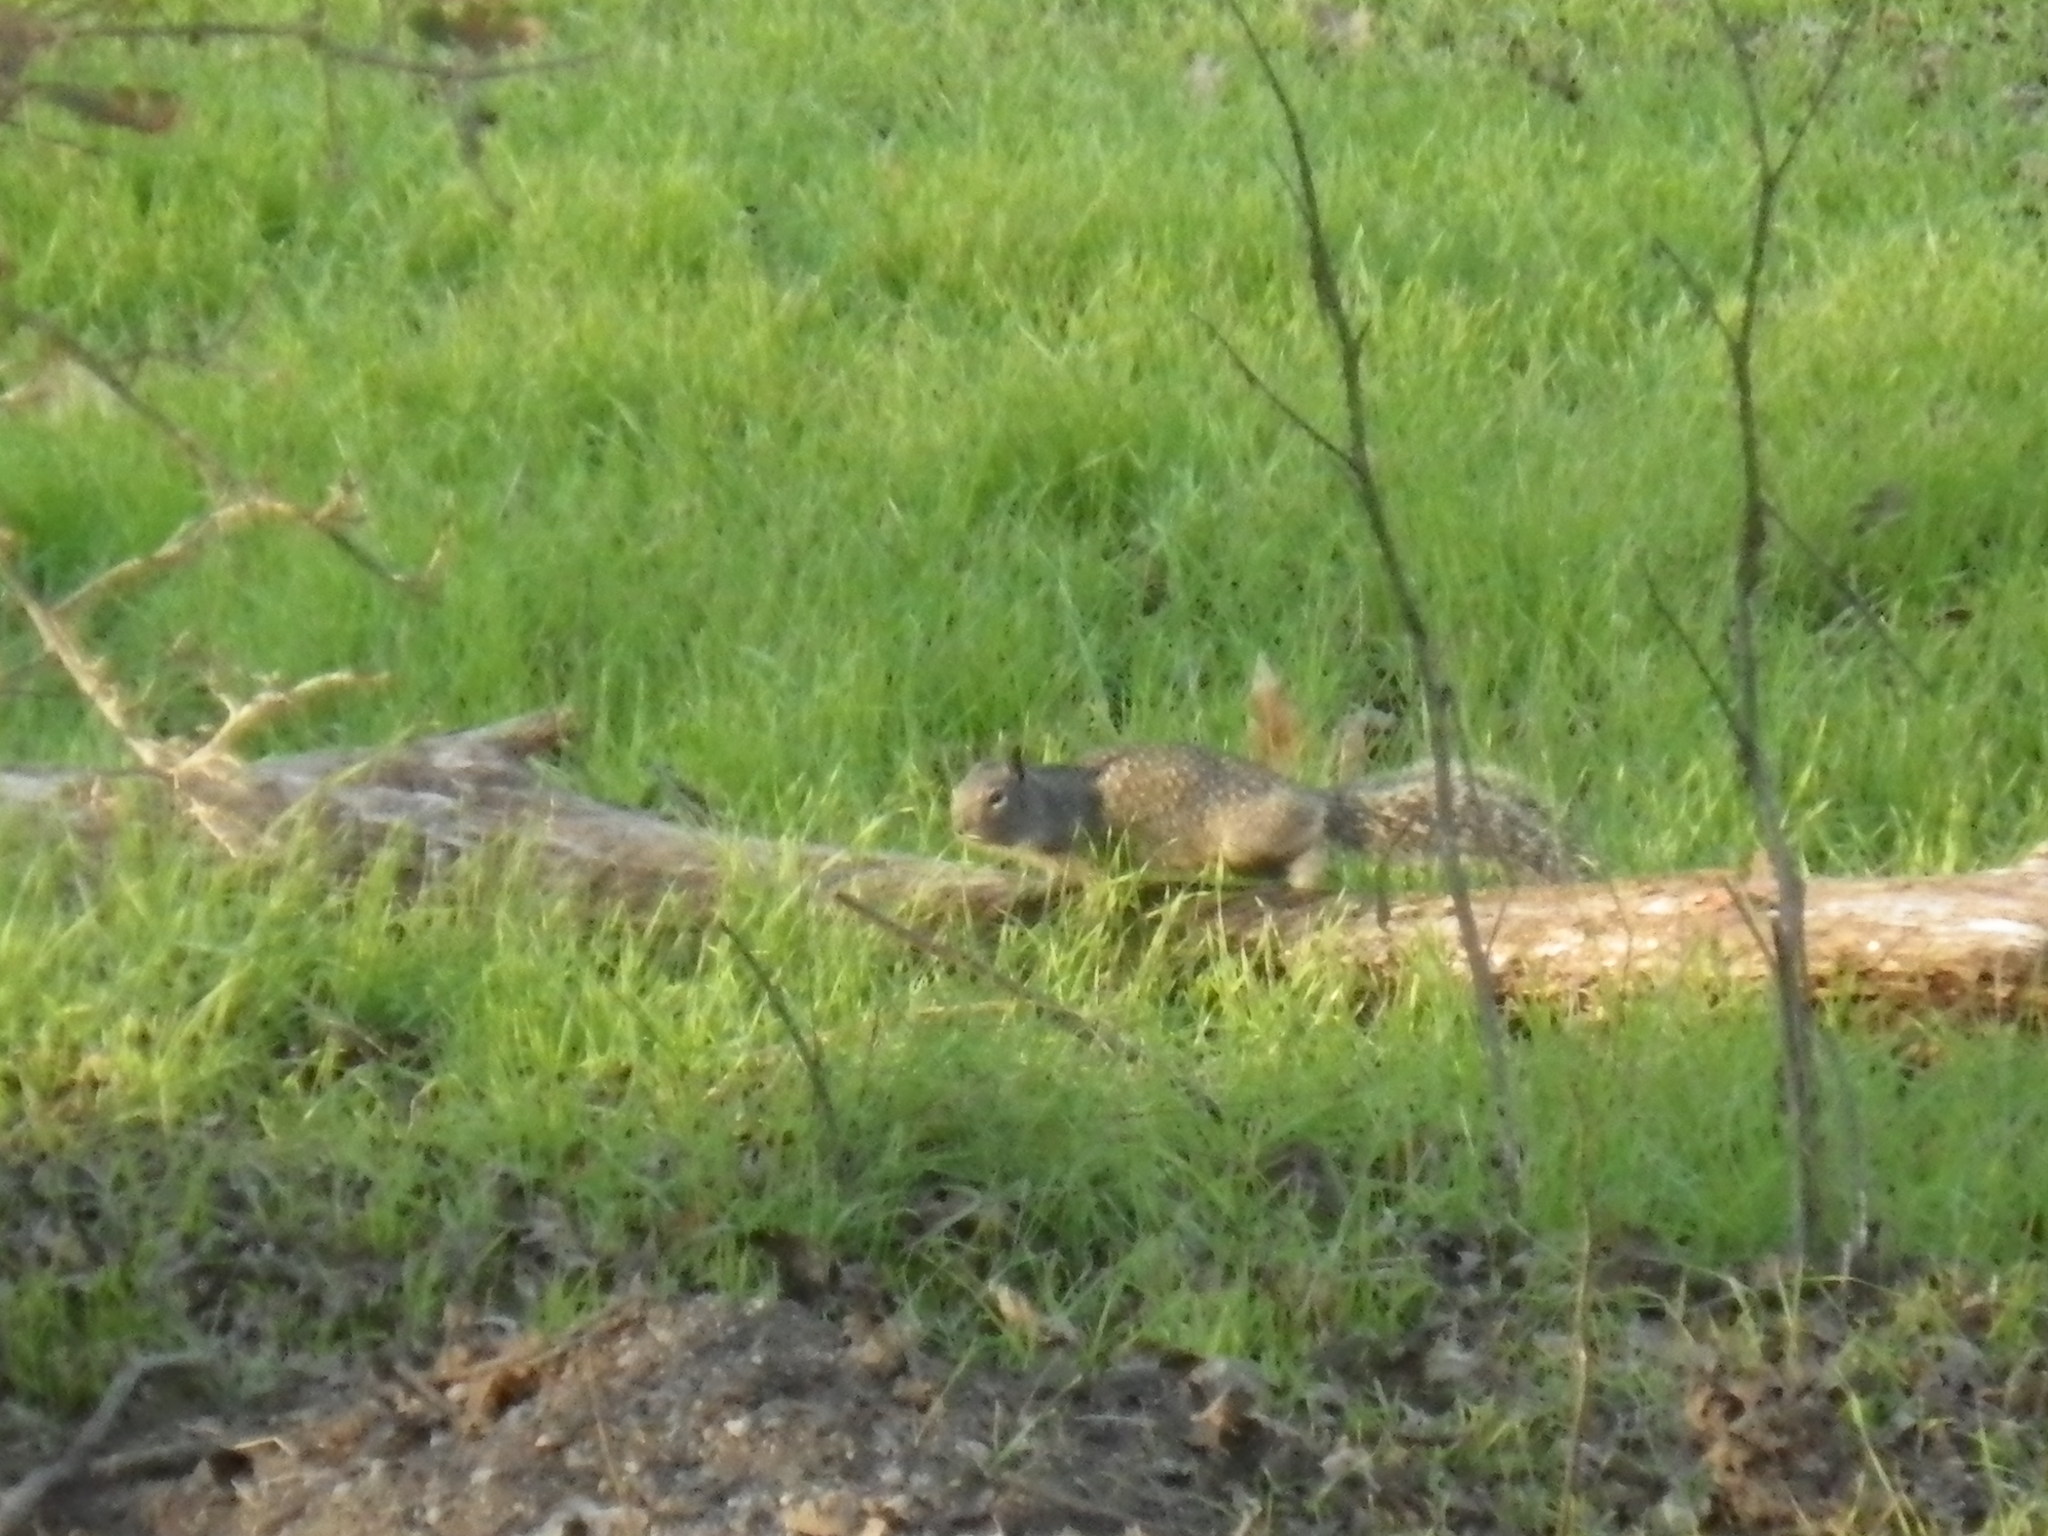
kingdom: Animalia
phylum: Chordata
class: Mammalia
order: Rodentia
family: Sciuridae
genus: Otospermophilus
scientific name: Otospermophilus beecheyi
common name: California ground squirrel
